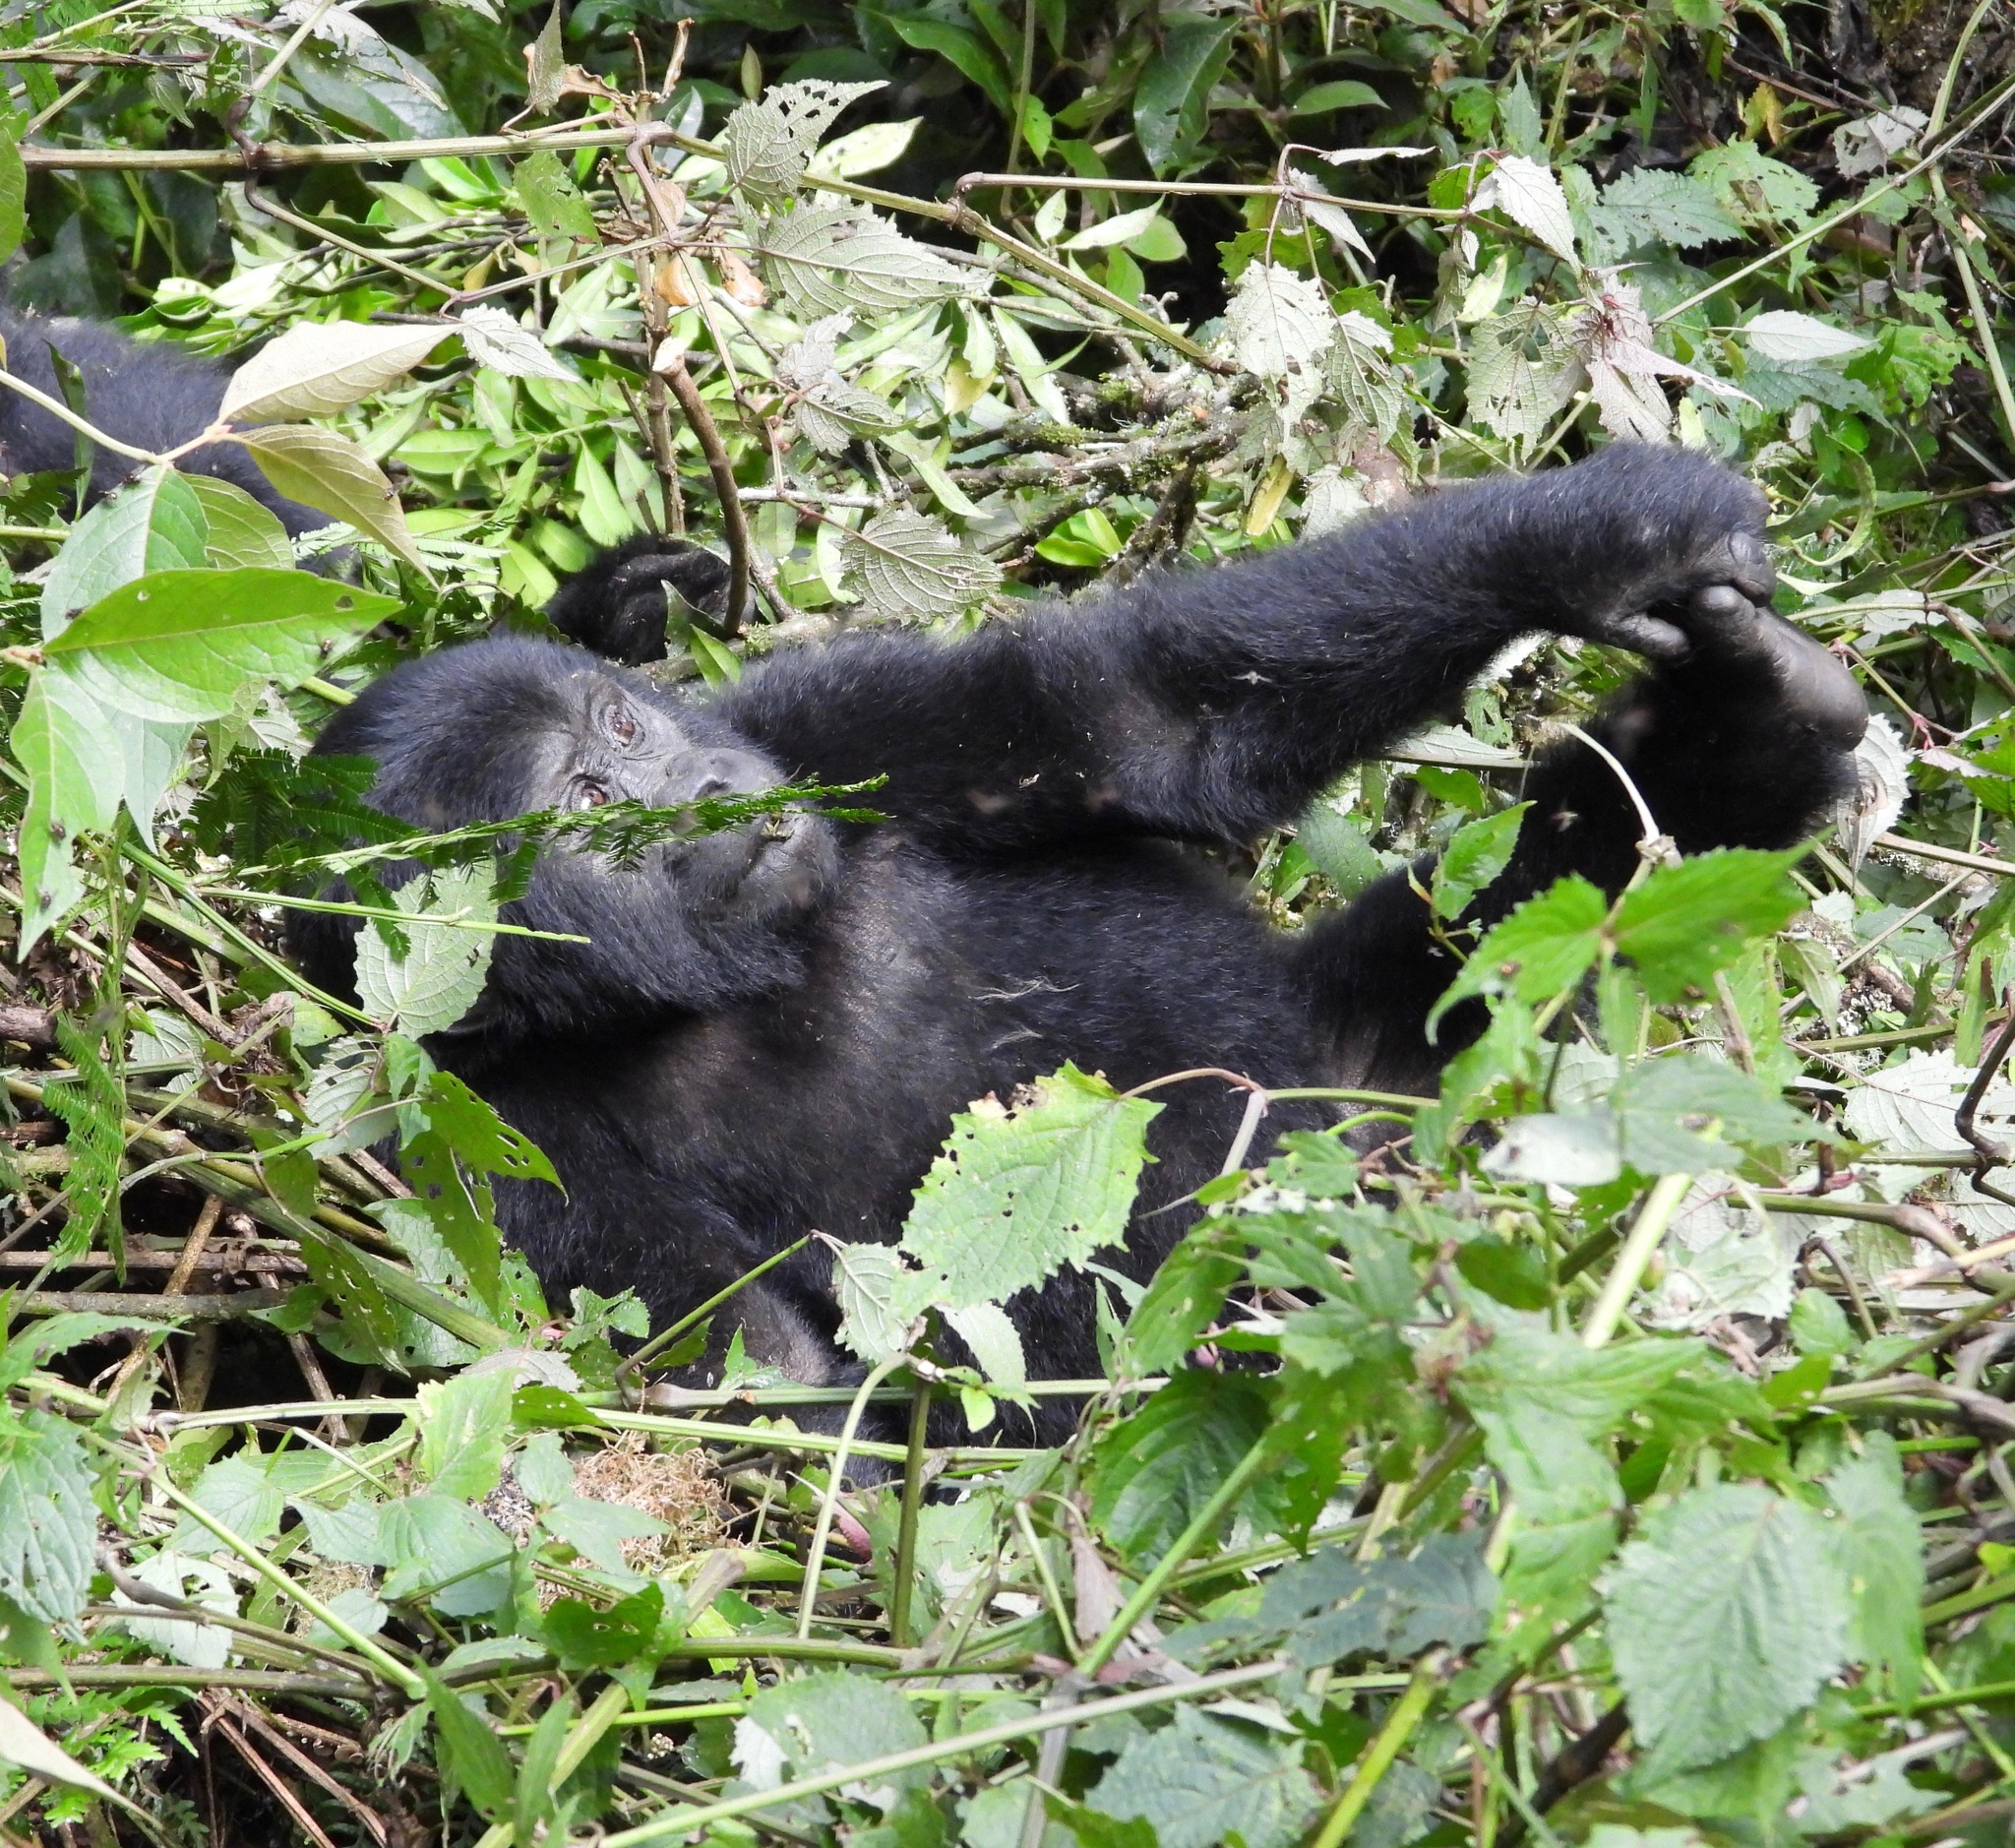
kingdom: Animalia
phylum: Chordata
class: Mammalia
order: Primates
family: Hominidae
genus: Gorilla
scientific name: Gorilla beringei
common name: Eastern gorilla
